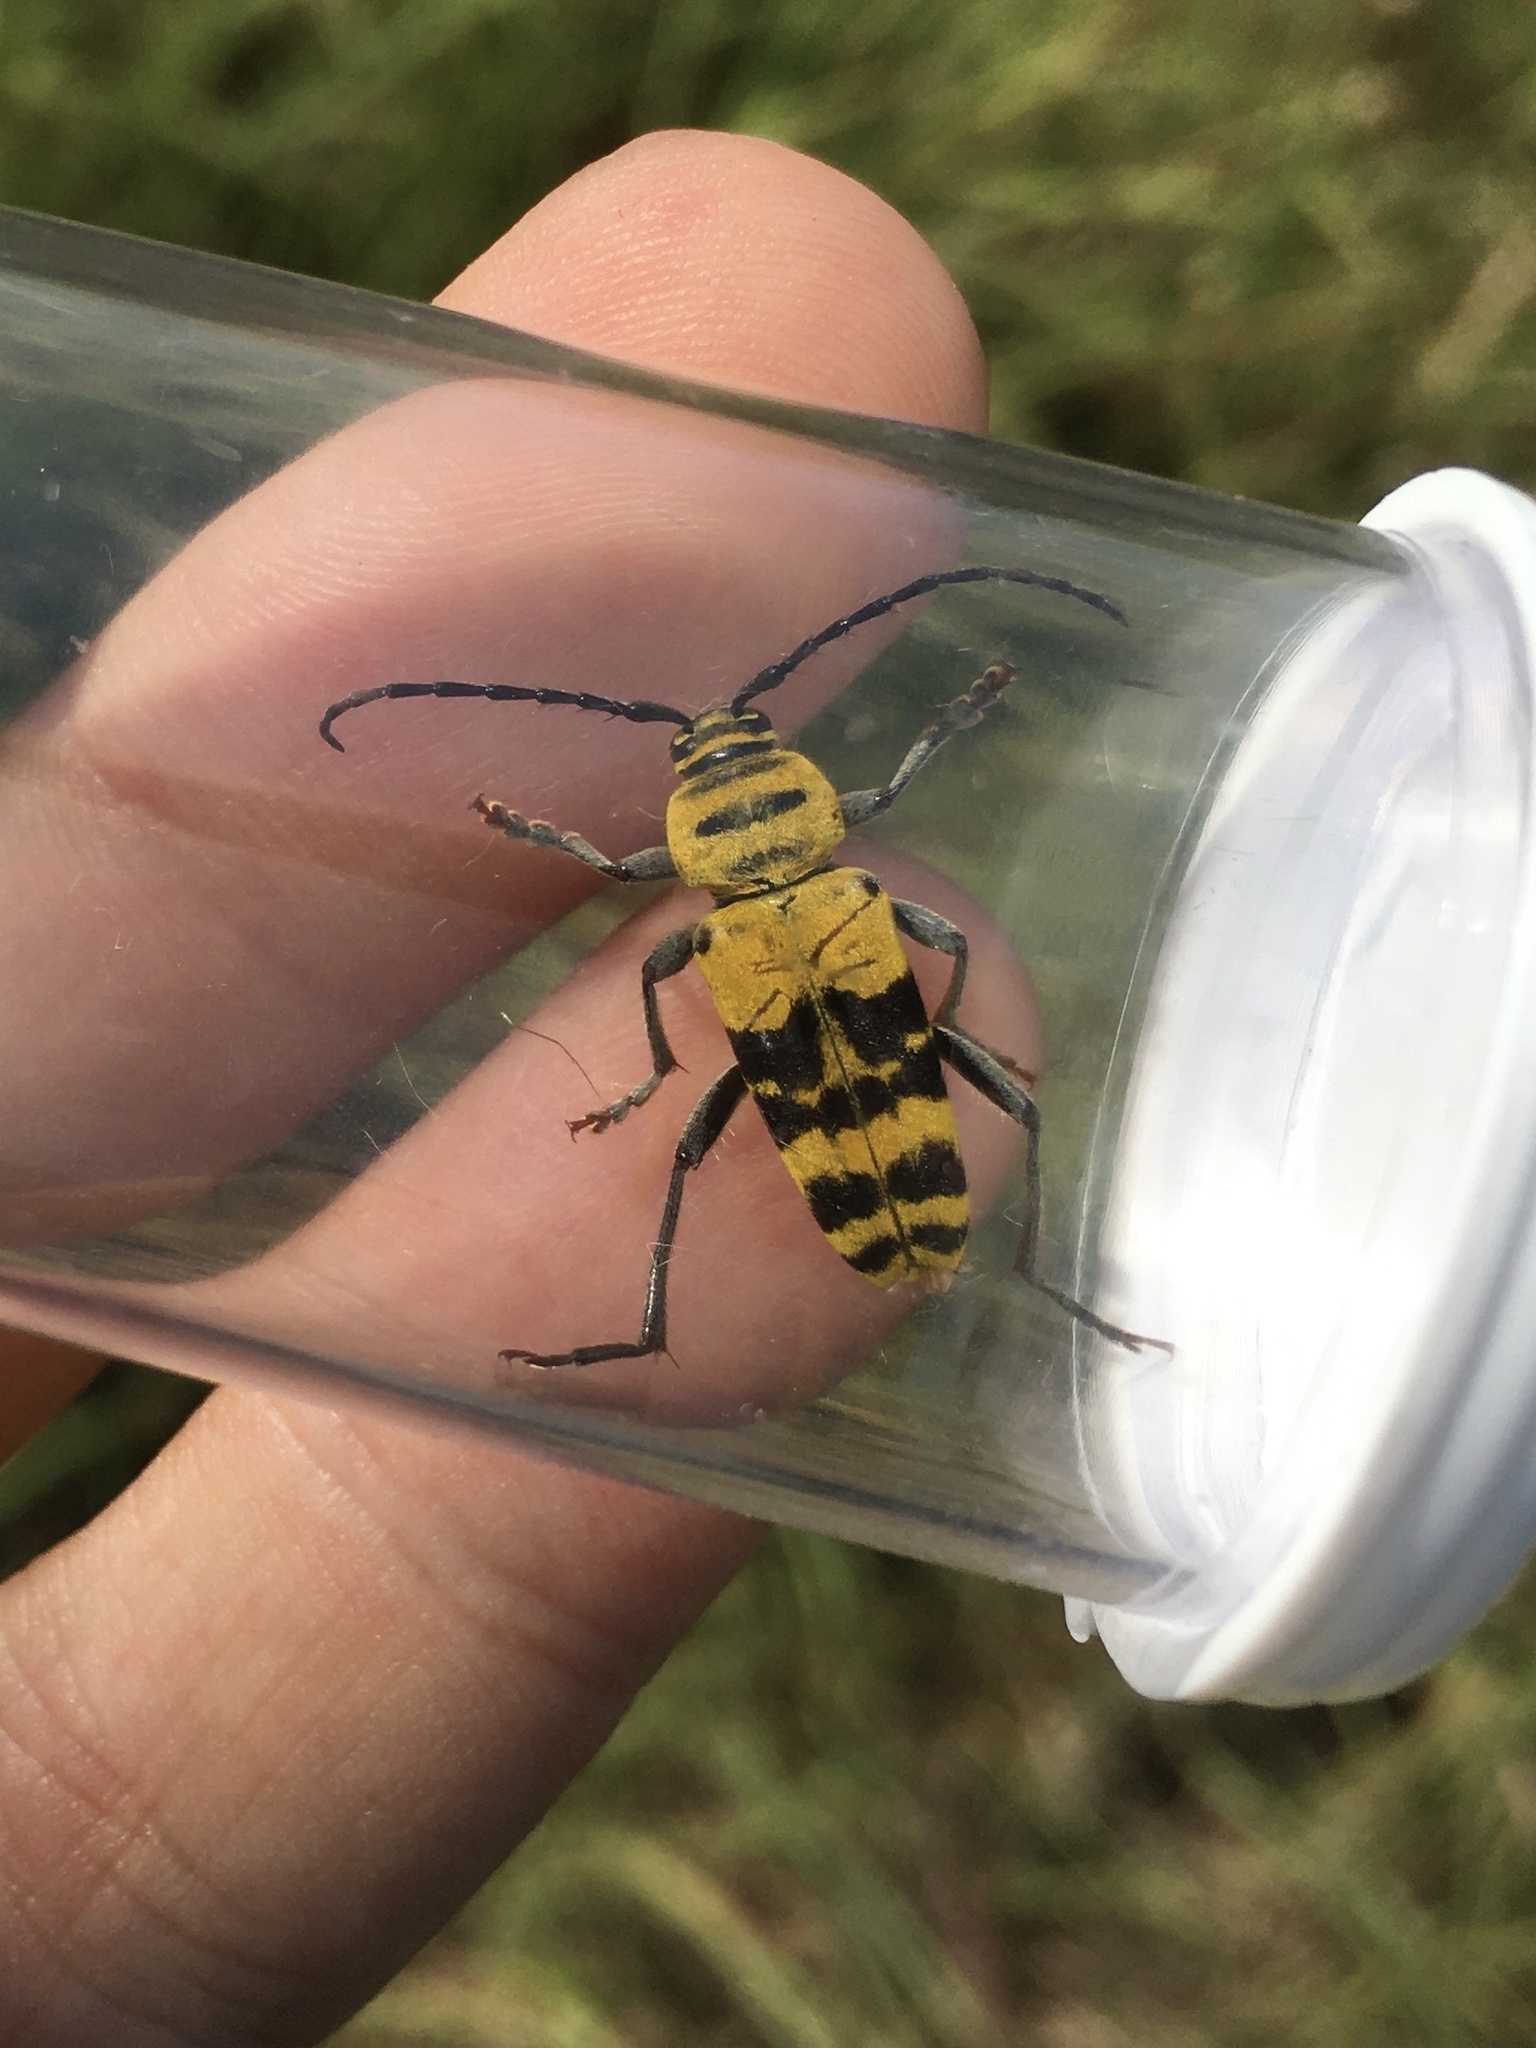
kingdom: Animalia
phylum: Arthropoda
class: Insecta
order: Coleoptera
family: Cerambycidae
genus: Megacyllene
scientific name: Megacyllene decora
